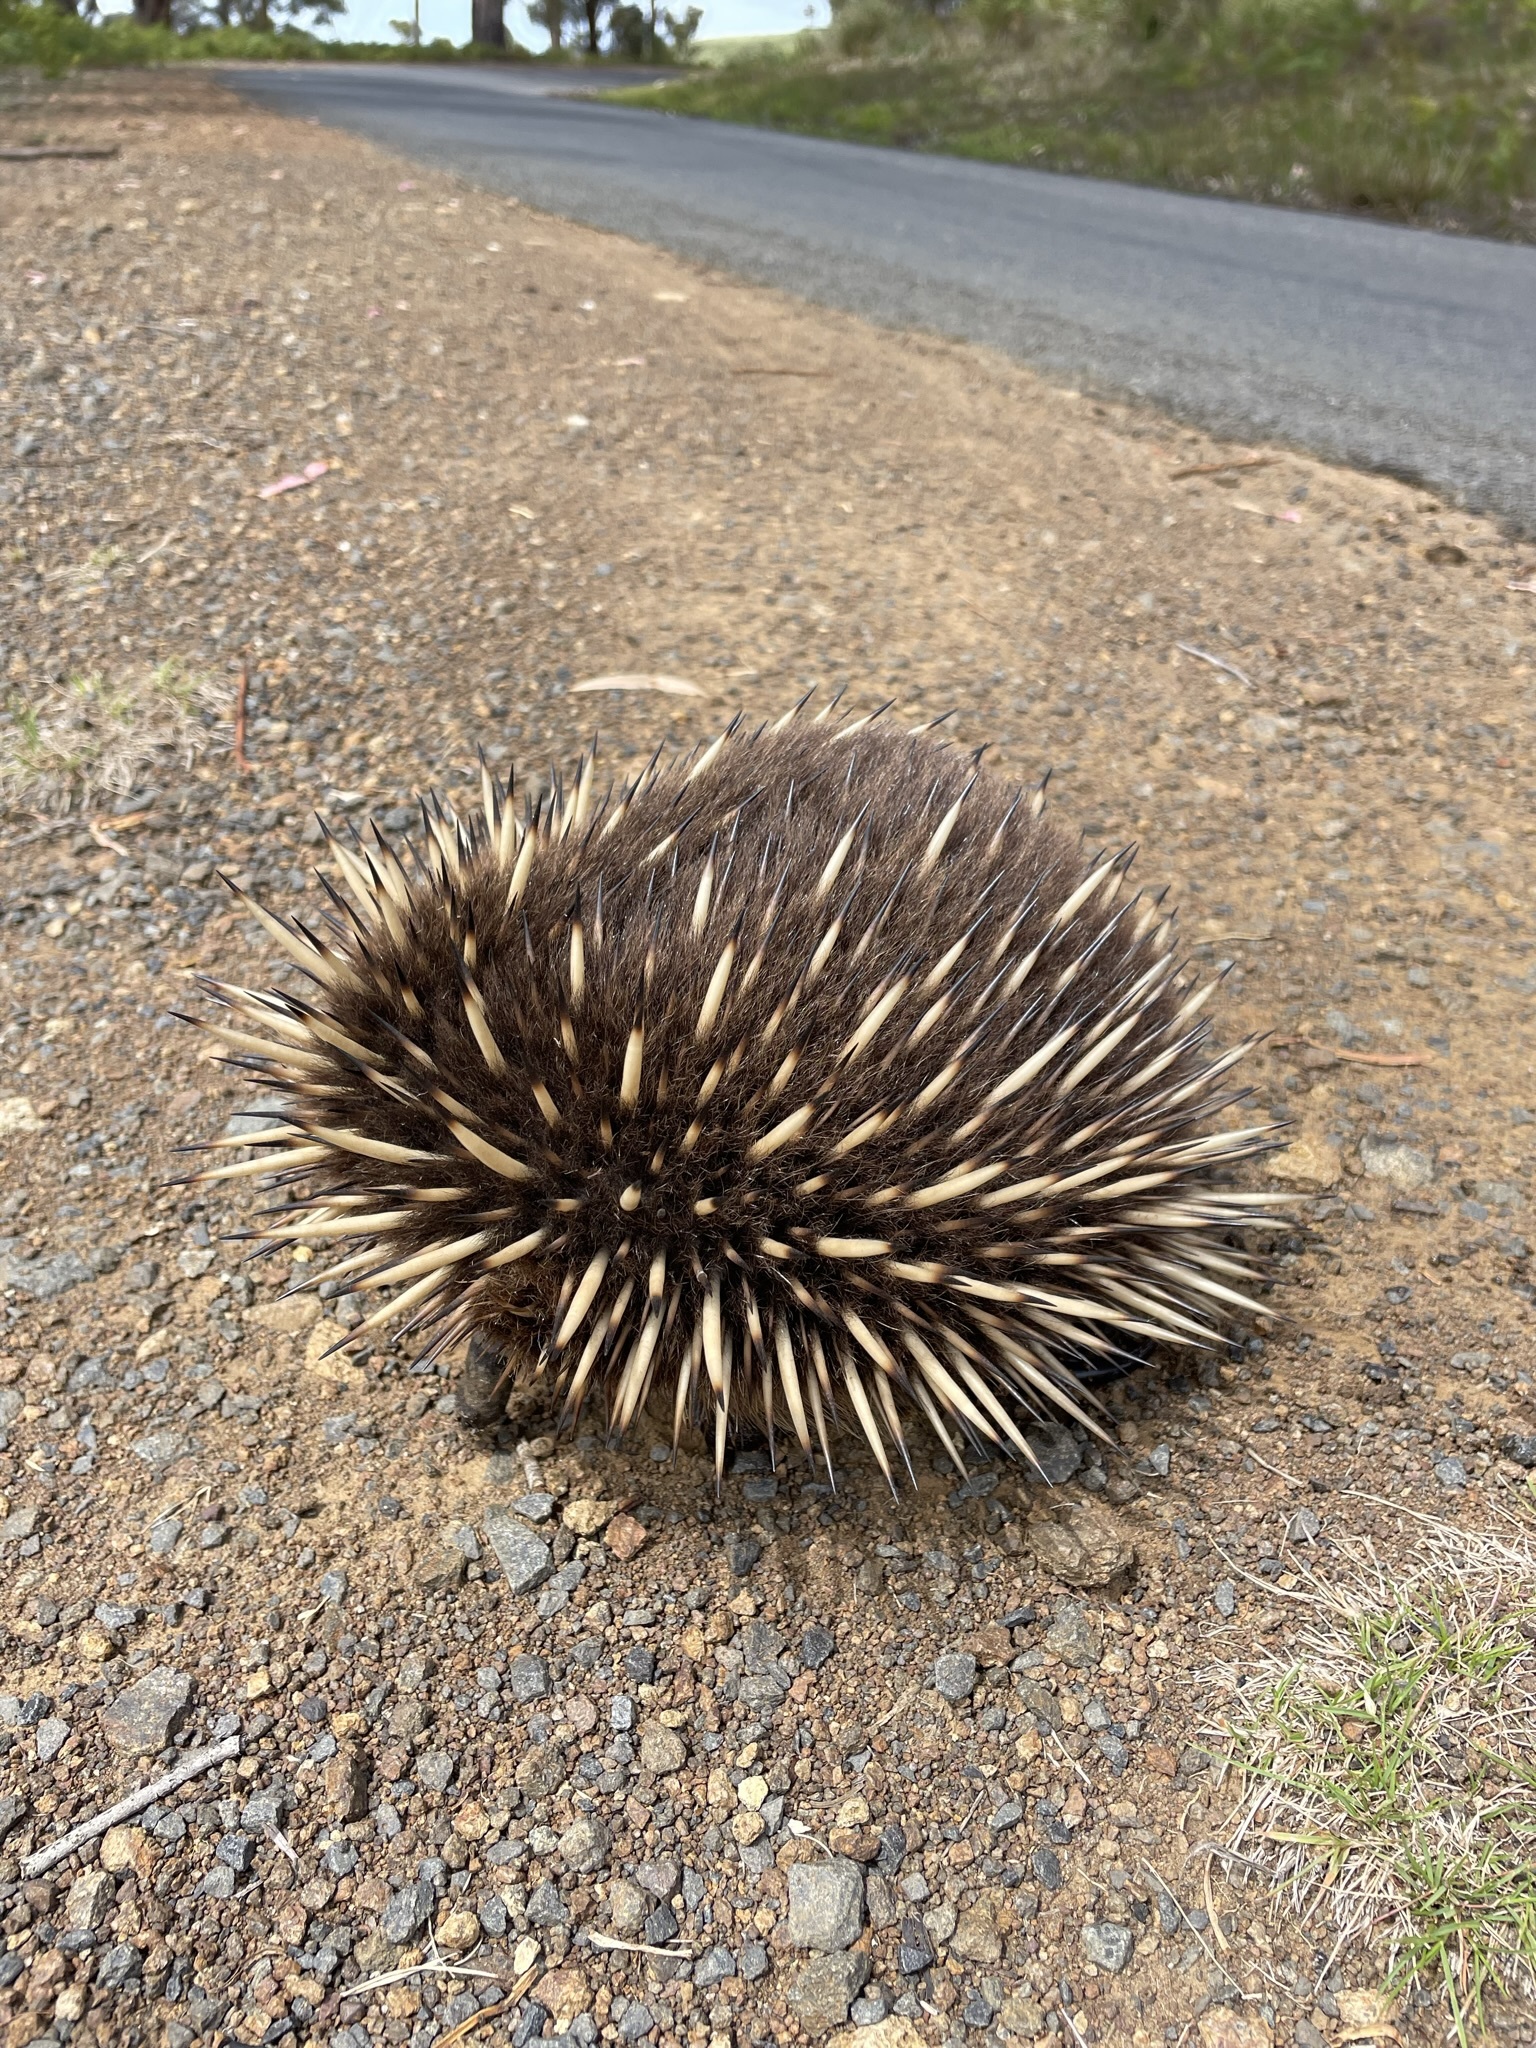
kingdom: Animalia
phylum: Chordata
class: Mammalia
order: Monotremata
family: Tachyglossidae
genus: Tachyglossus
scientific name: Tachyglossus aculeatus
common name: Short-beaked echidna
